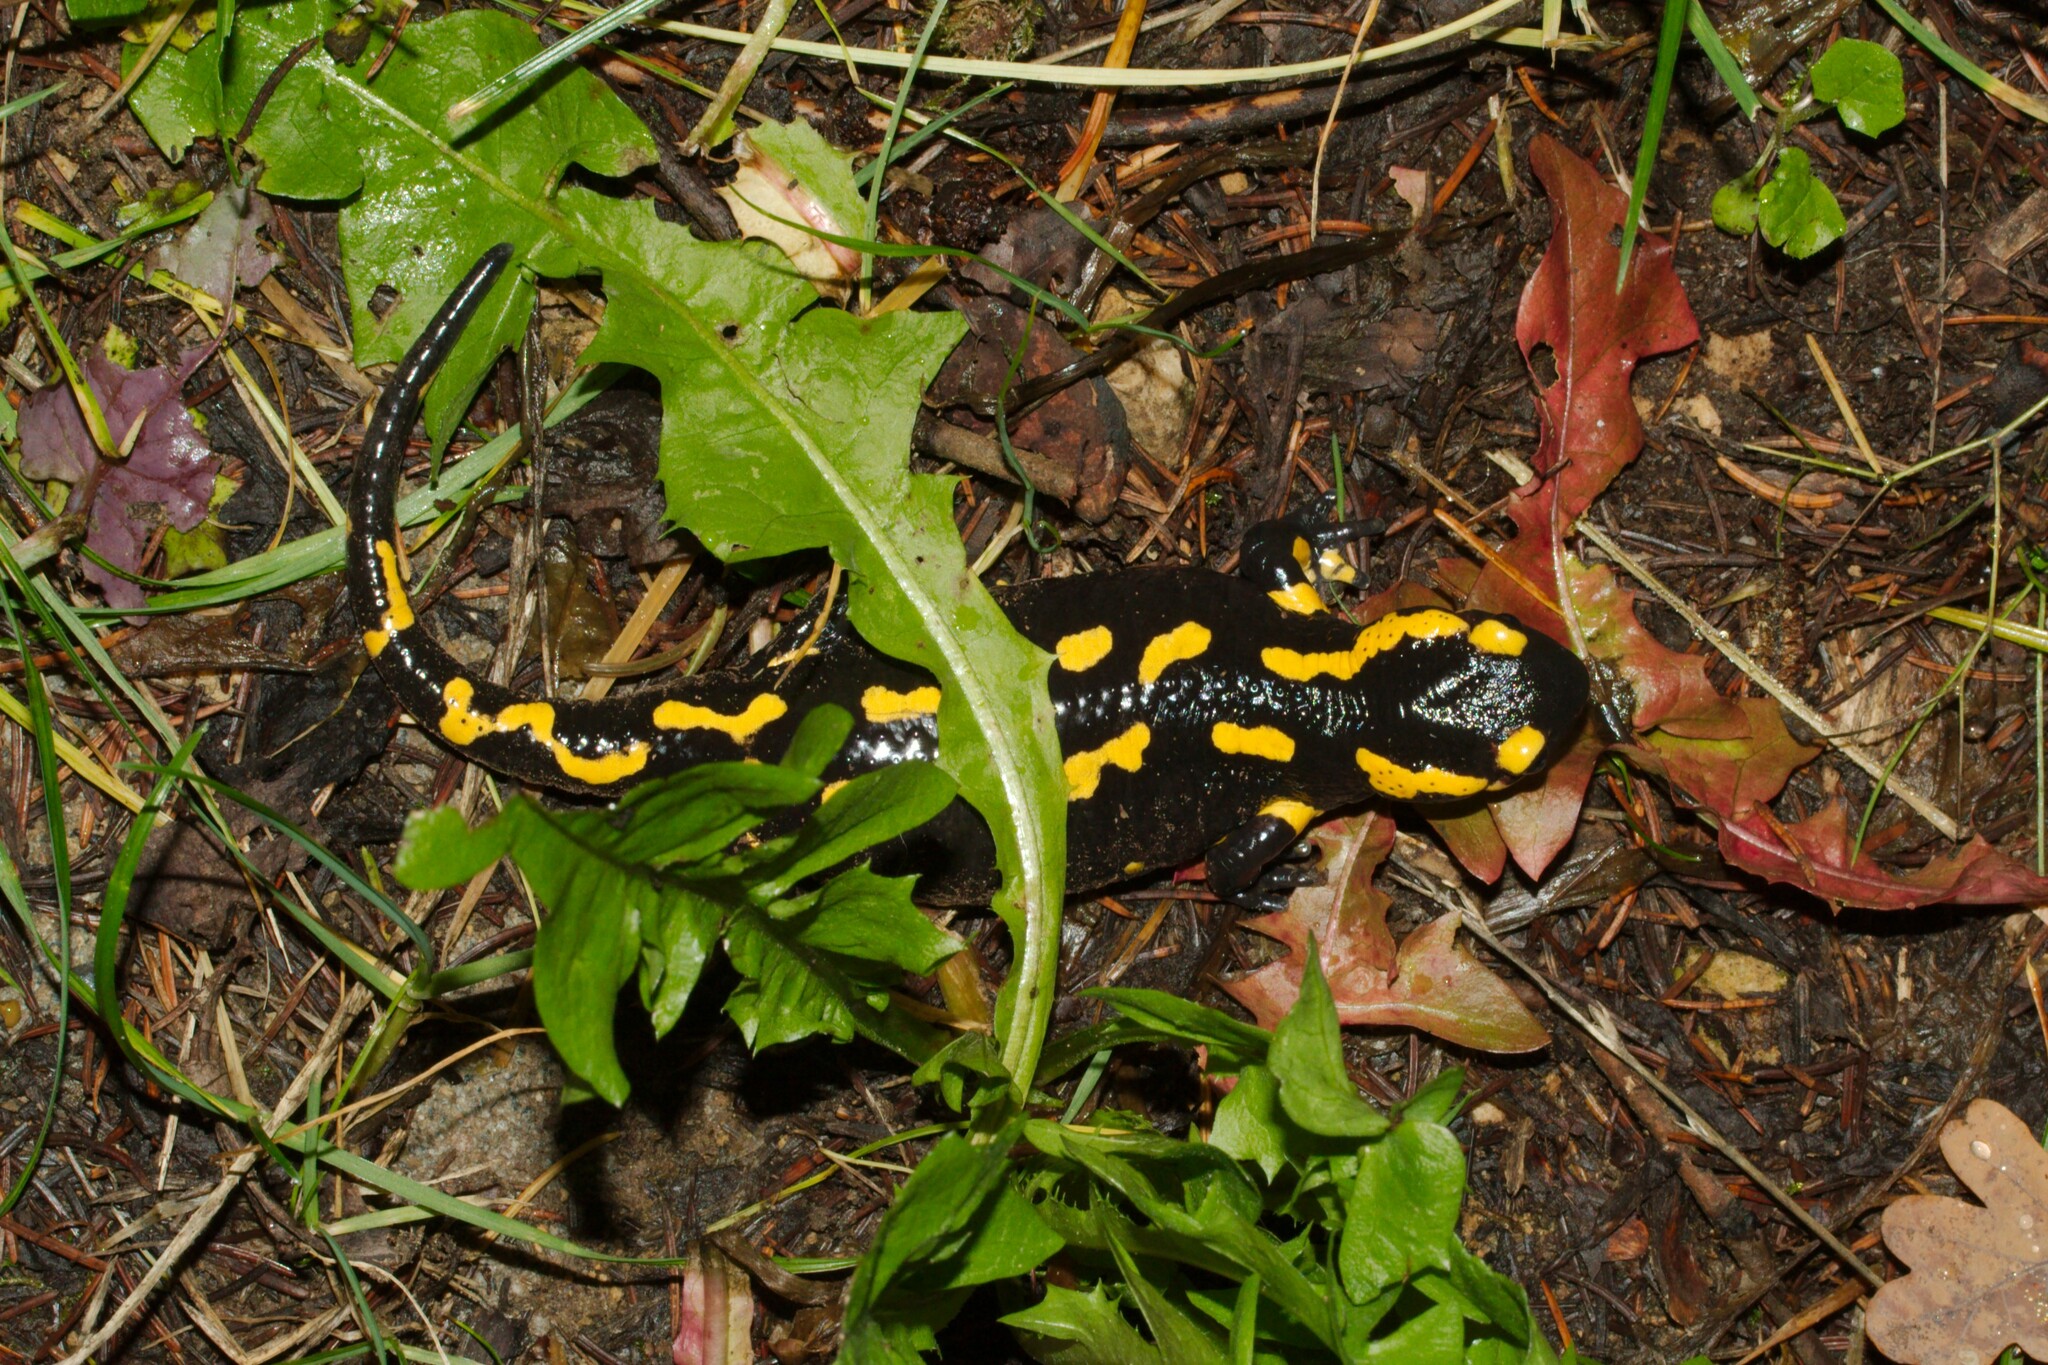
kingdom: Animalia
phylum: Chordata
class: Amphibia
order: Caudata
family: Salamandridae
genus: Salamandra
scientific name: Salamandra salamandra
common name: Fire salamander
